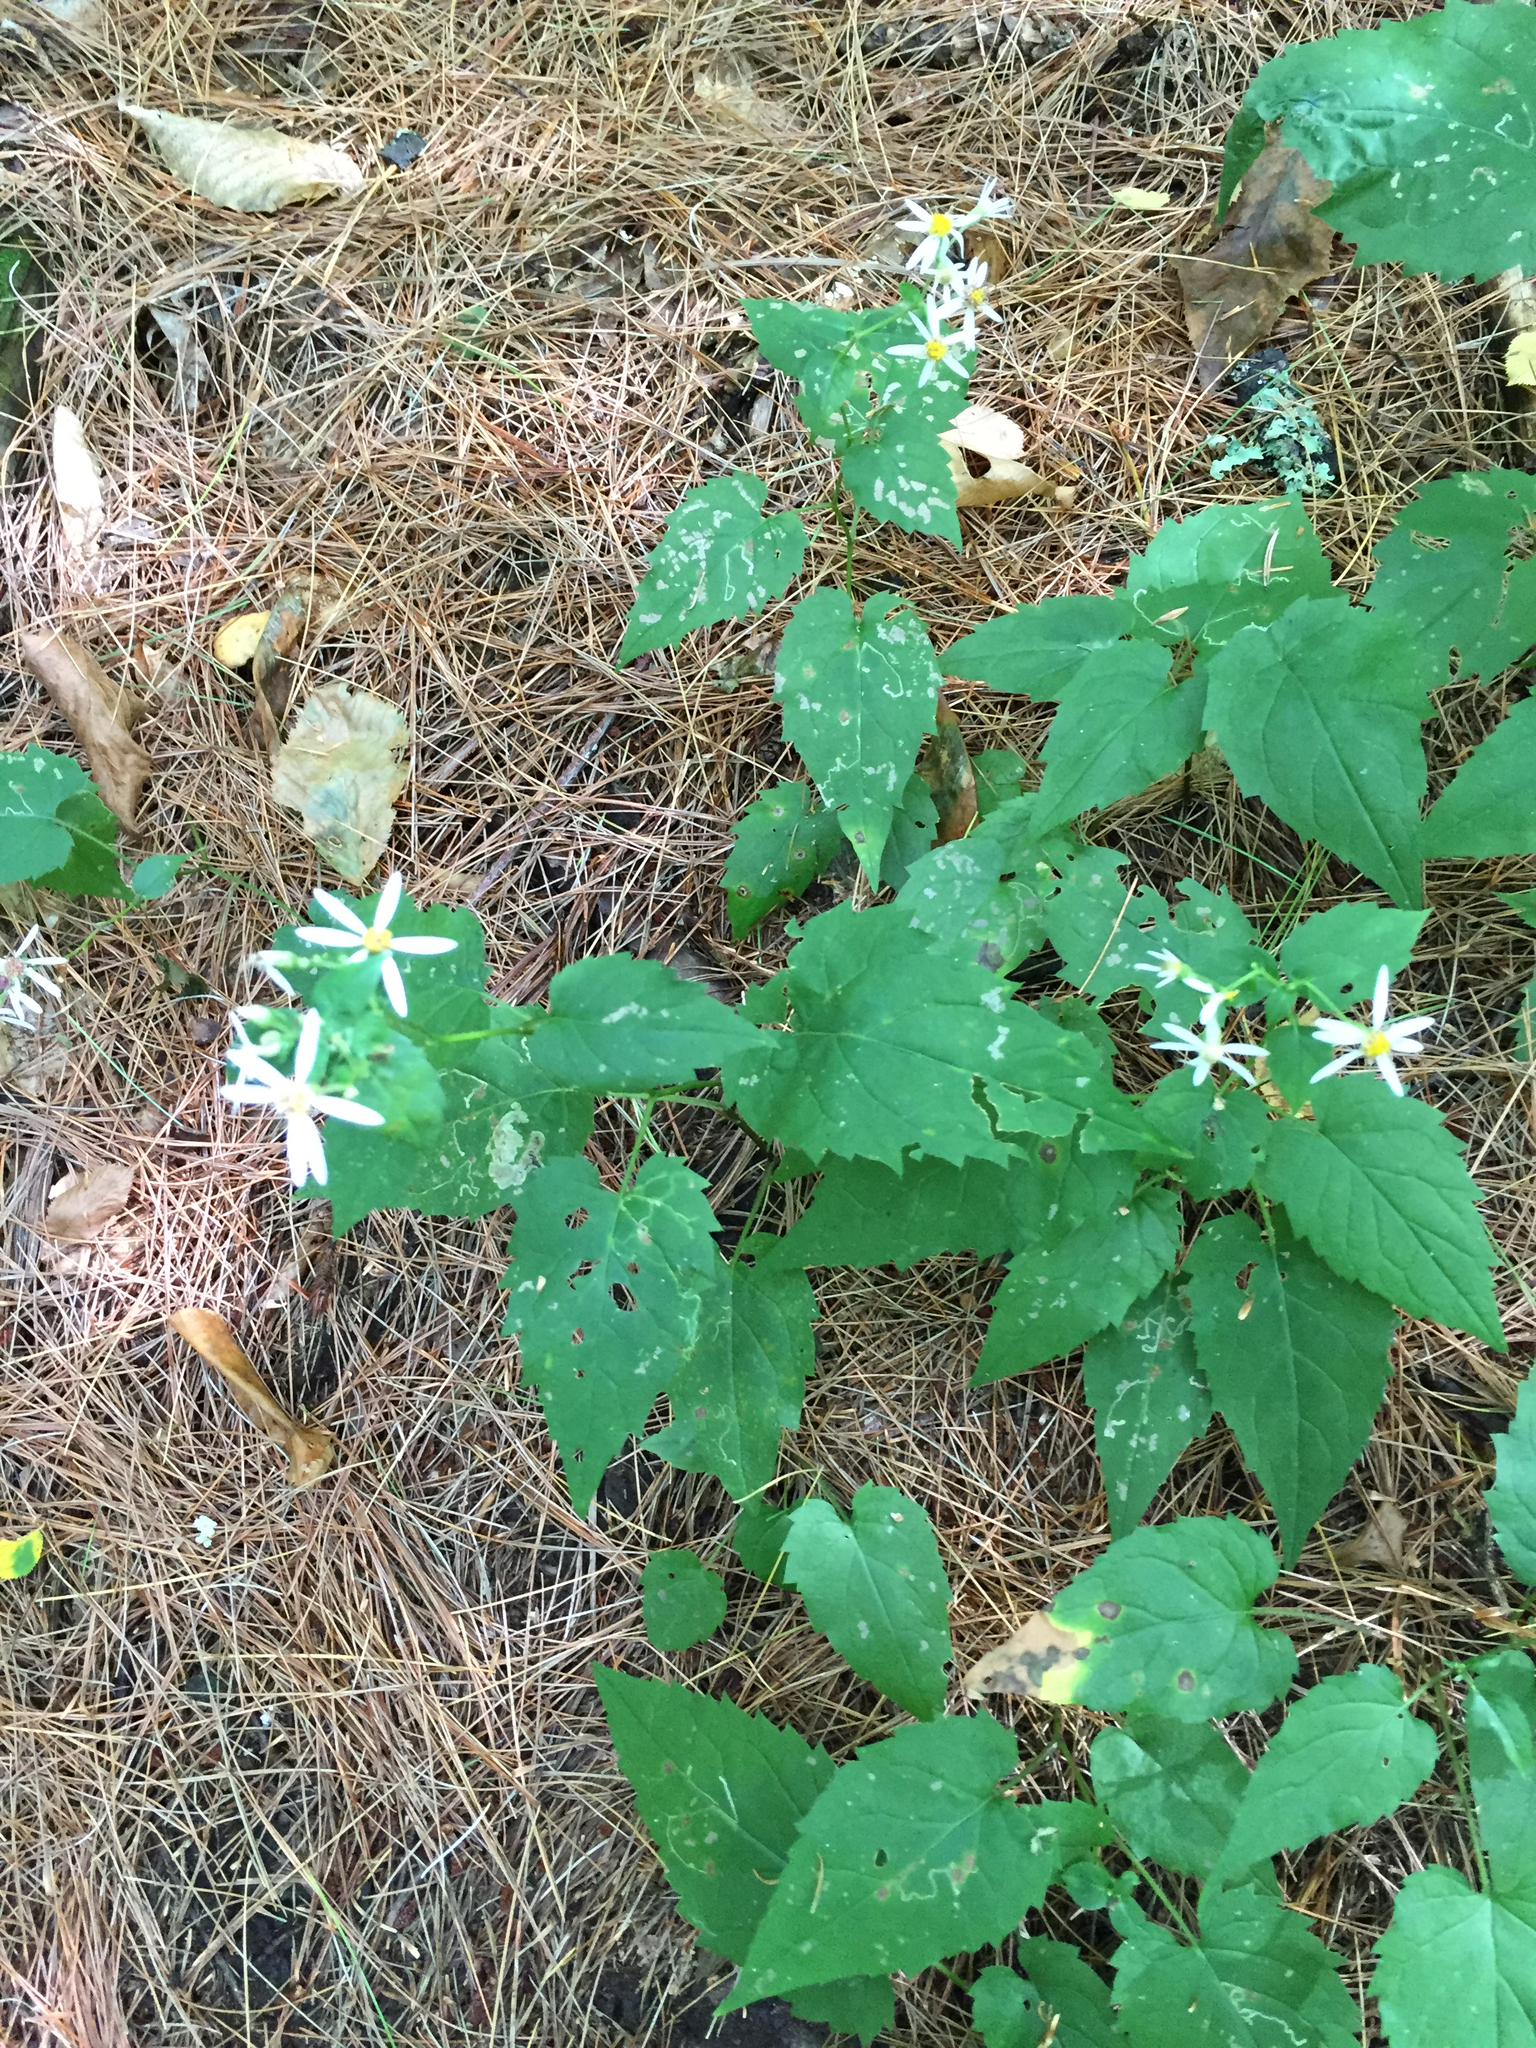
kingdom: Plantae
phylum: Tracheophyta
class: Magnoliopsida
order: Asterales
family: Asteraceae
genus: Eurybia
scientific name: Eurybia divaricata
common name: White wood aster
